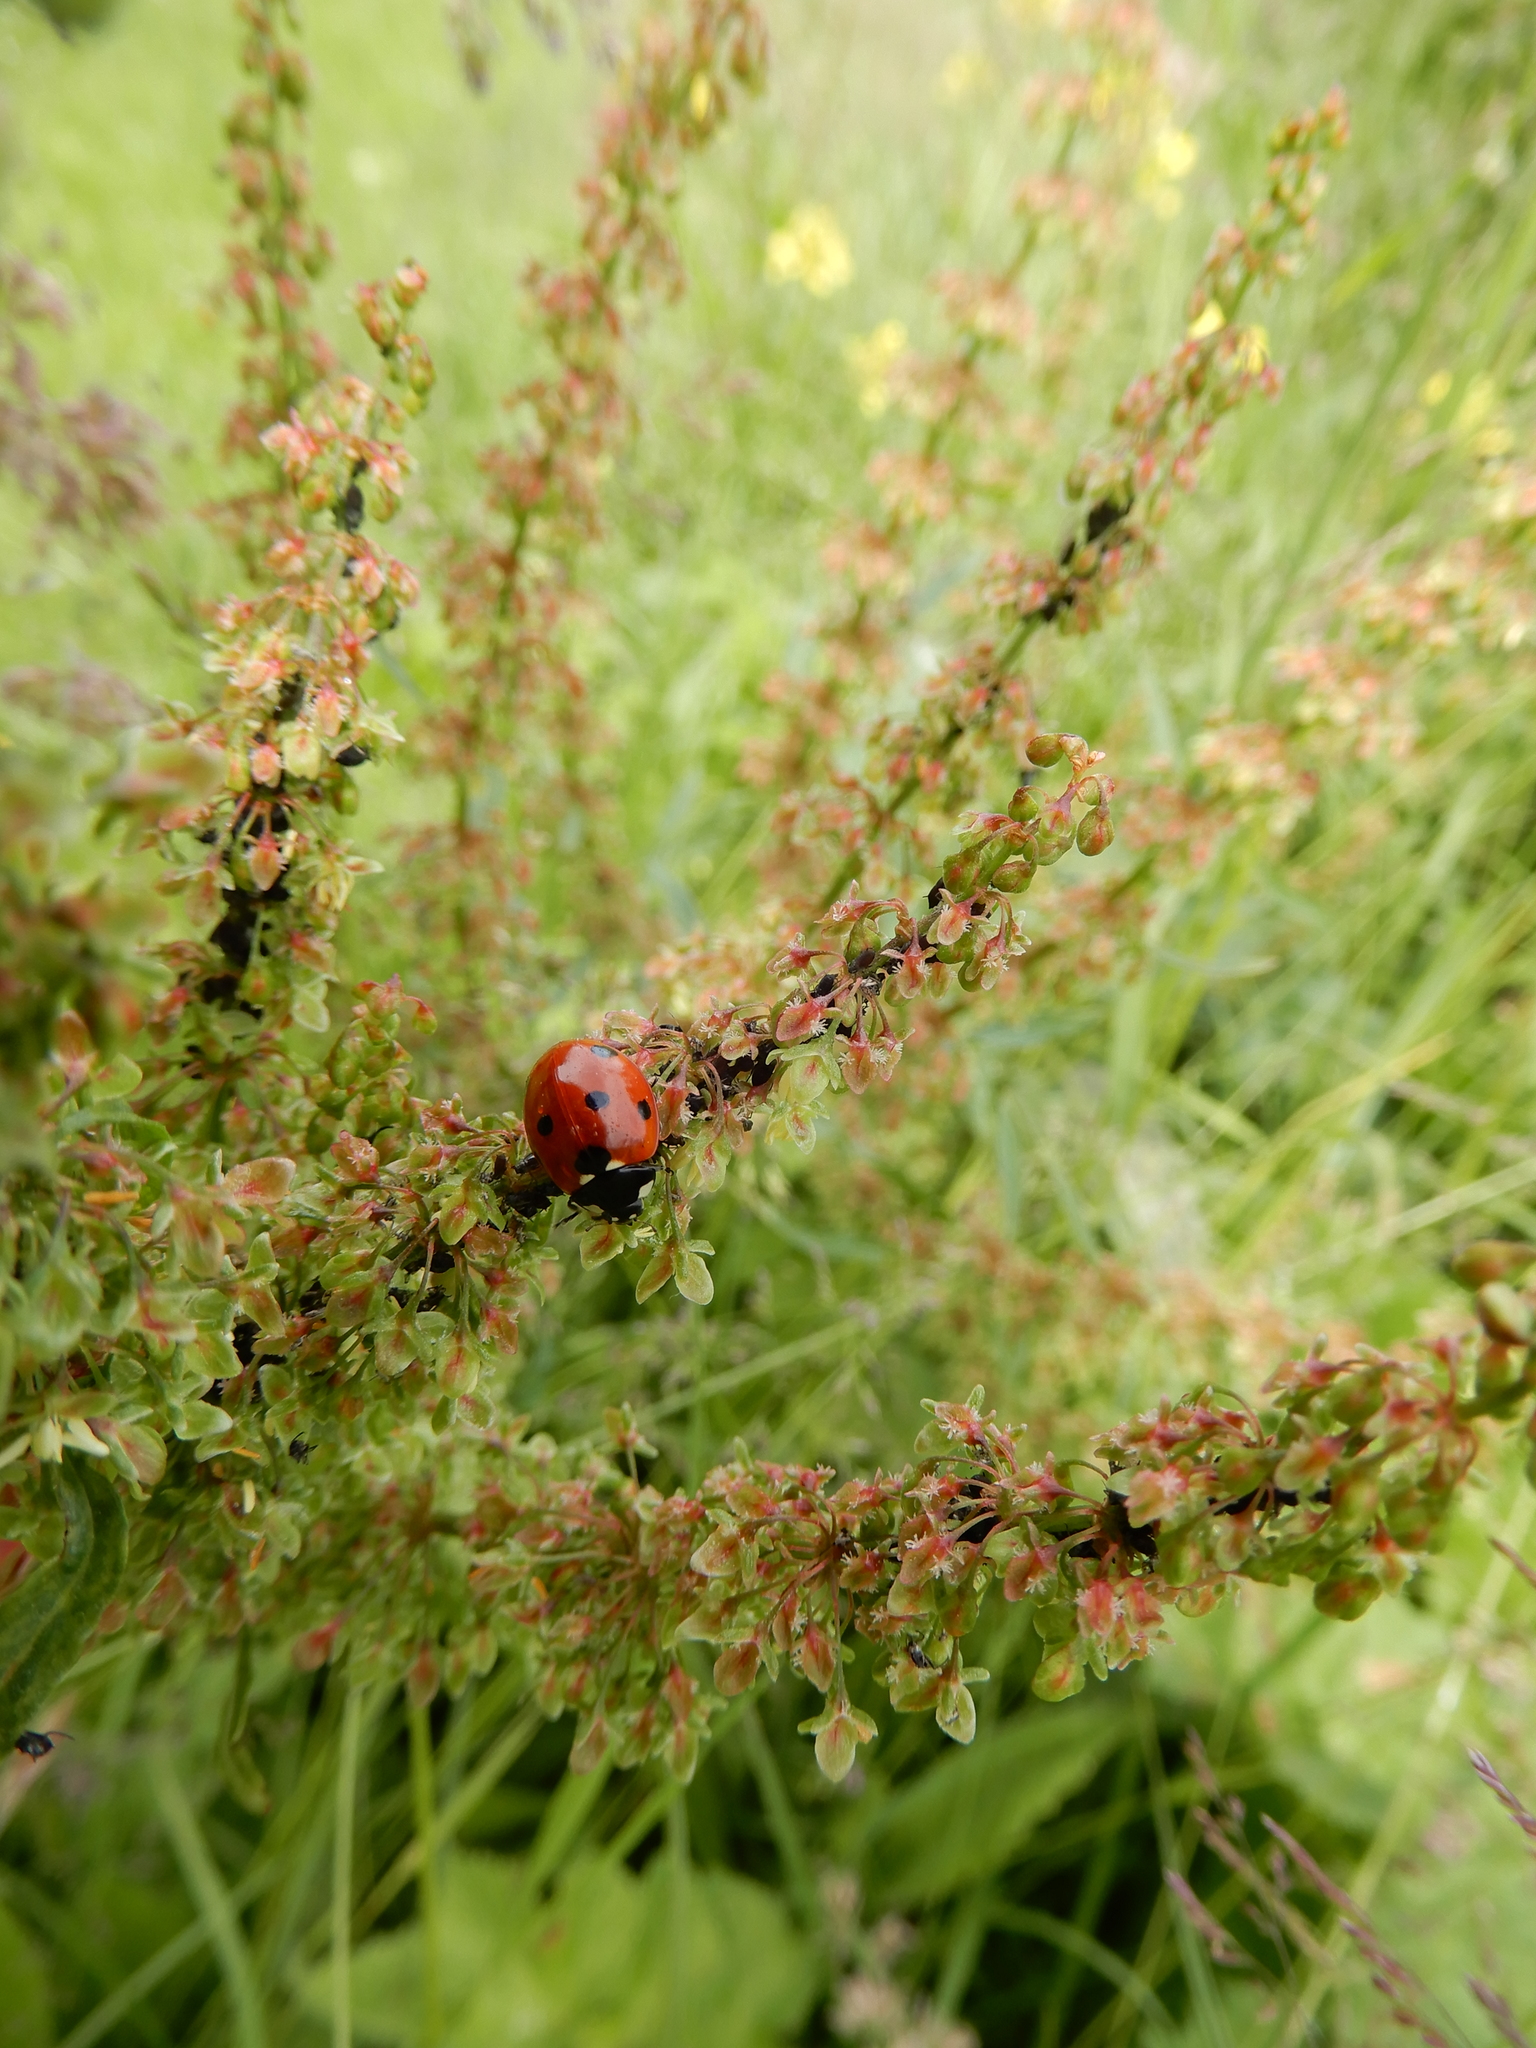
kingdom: Animalia
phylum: Arthropoda
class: Insecta
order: Coleoptera
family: Coccinellidae
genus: Coccinella
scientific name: Coccinella septempunctata
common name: Sevenspotted lady beetle
